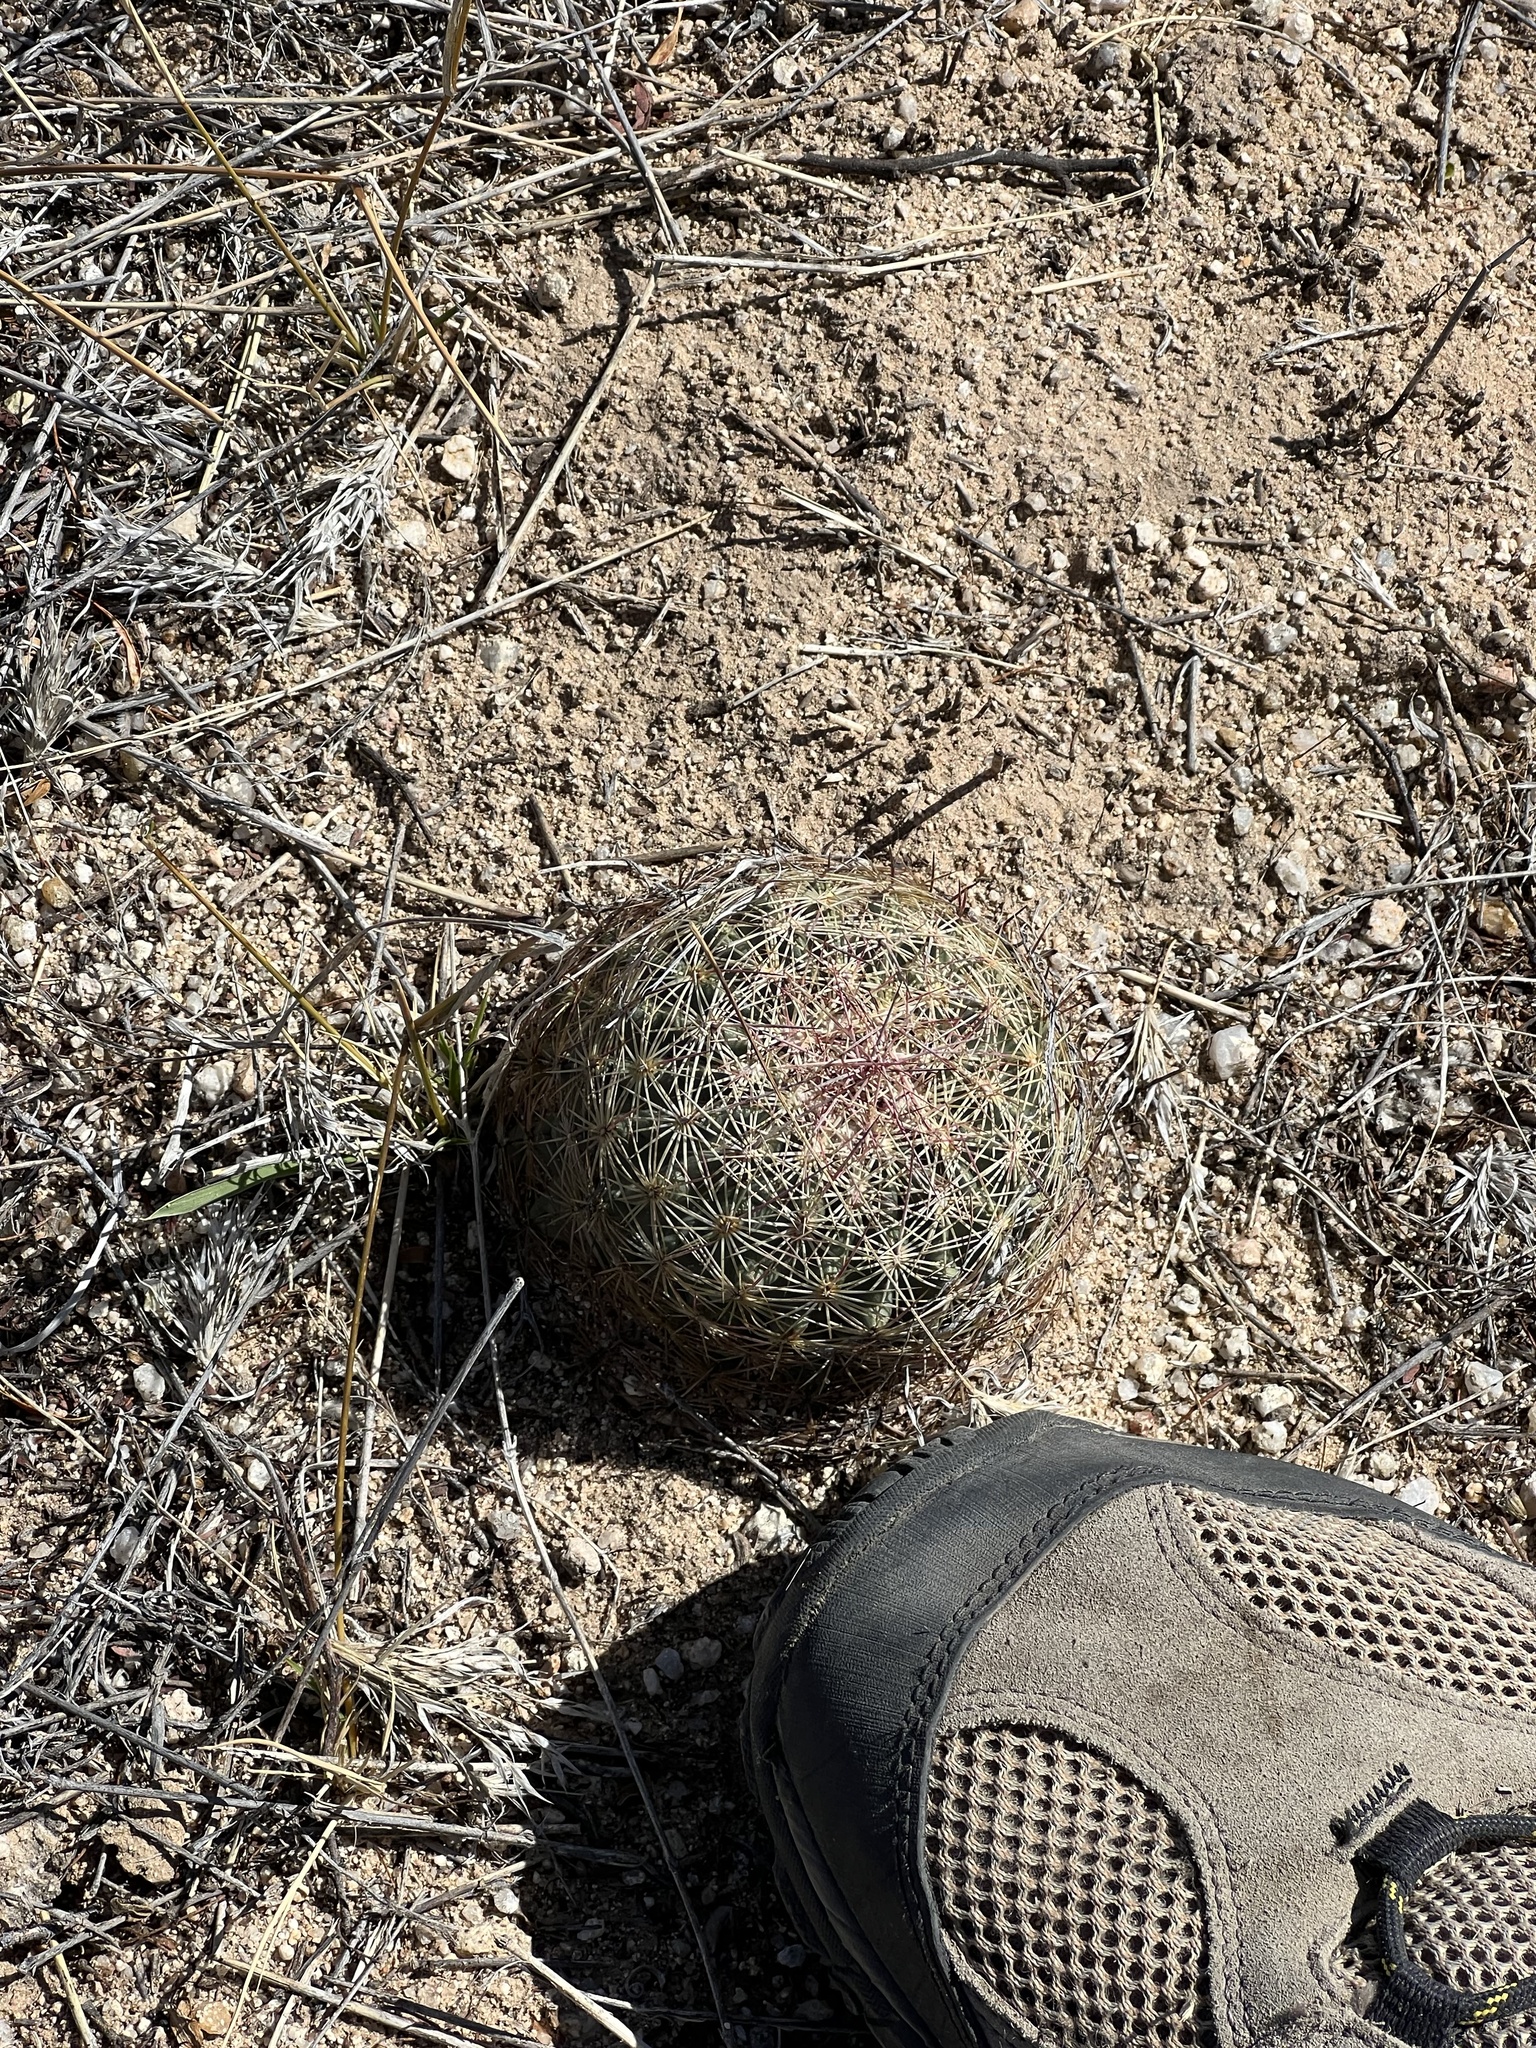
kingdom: Plantae
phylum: Tracheophyta
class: Magnoliopsida
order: Caryophyllales
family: Cactaceae
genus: Sclerocactus
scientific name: Sclerocactus johnsonii
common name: Eight-spine fishhook cactus
